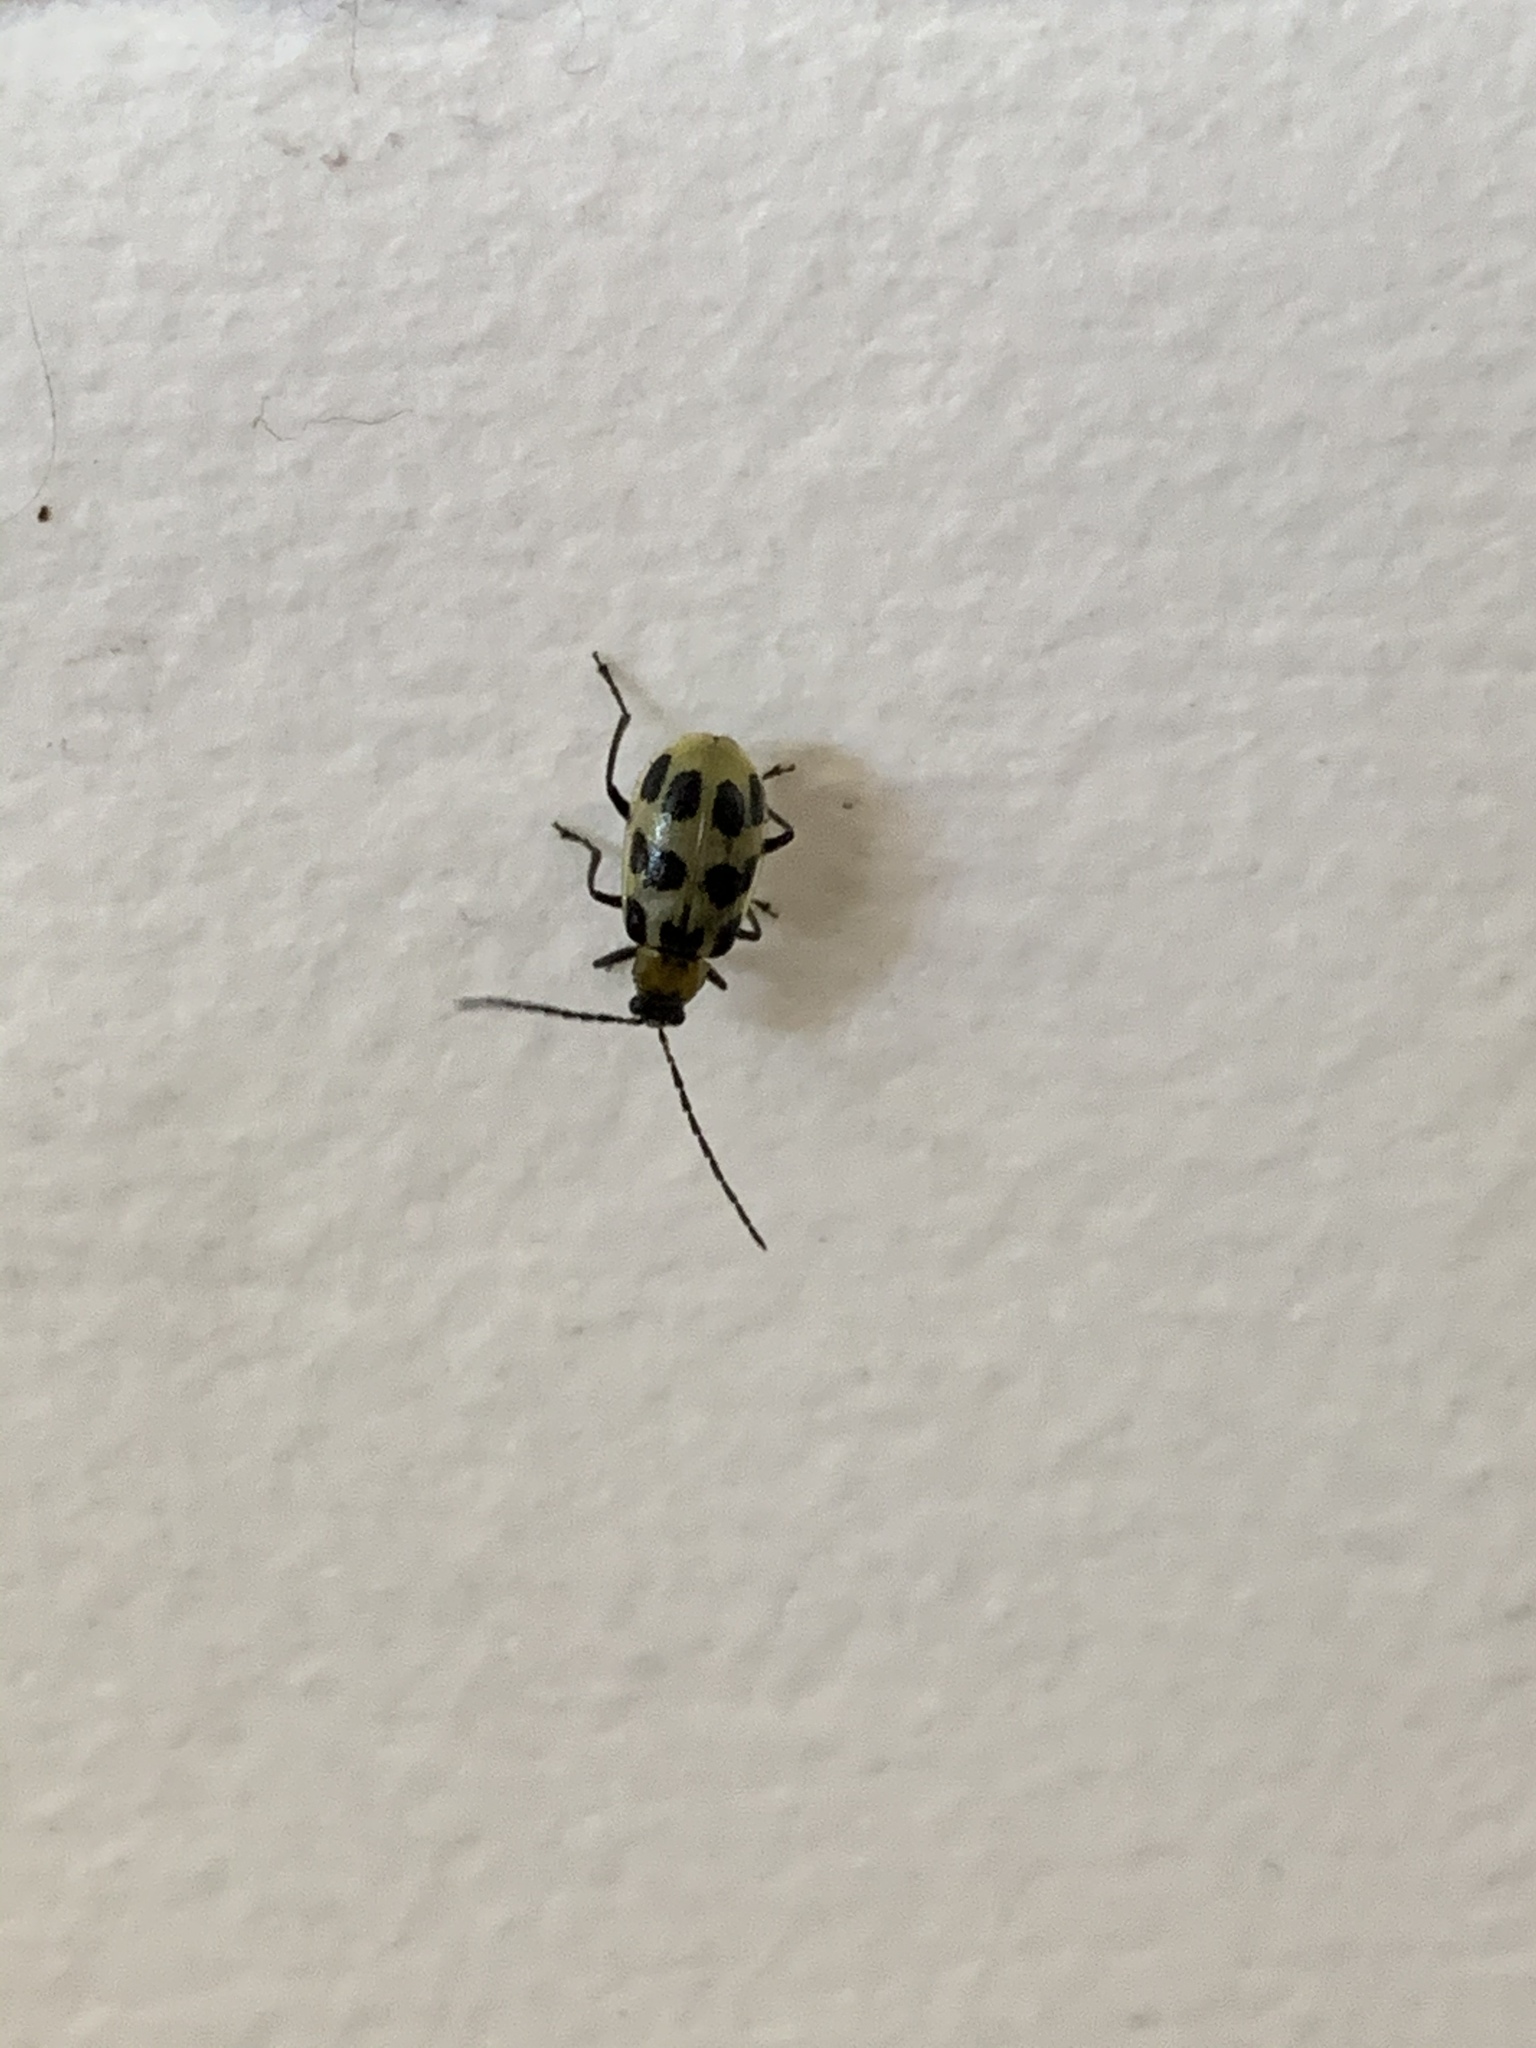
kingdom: Animalia
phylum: Arthropoda
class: Insecta
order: Coleoptera
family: Chrysomelidae
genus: Diabrotica
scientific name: Diabrotica undecimpunctata
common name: Spotted cucumber beetle
